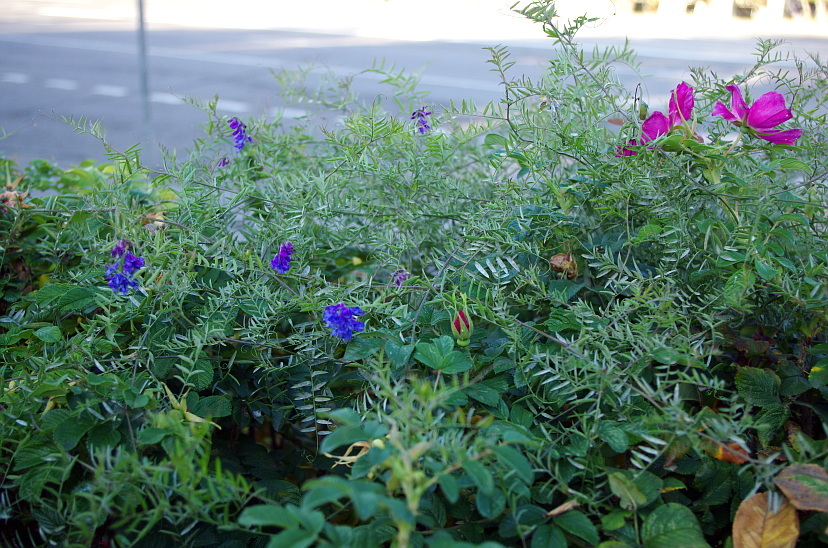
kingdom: Plantae
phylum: Tracheophyta
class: Magnoliopsida
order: Fabales
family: Fabaceae
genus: Vicia
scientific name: Vicia cracca
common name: Bird vetch
